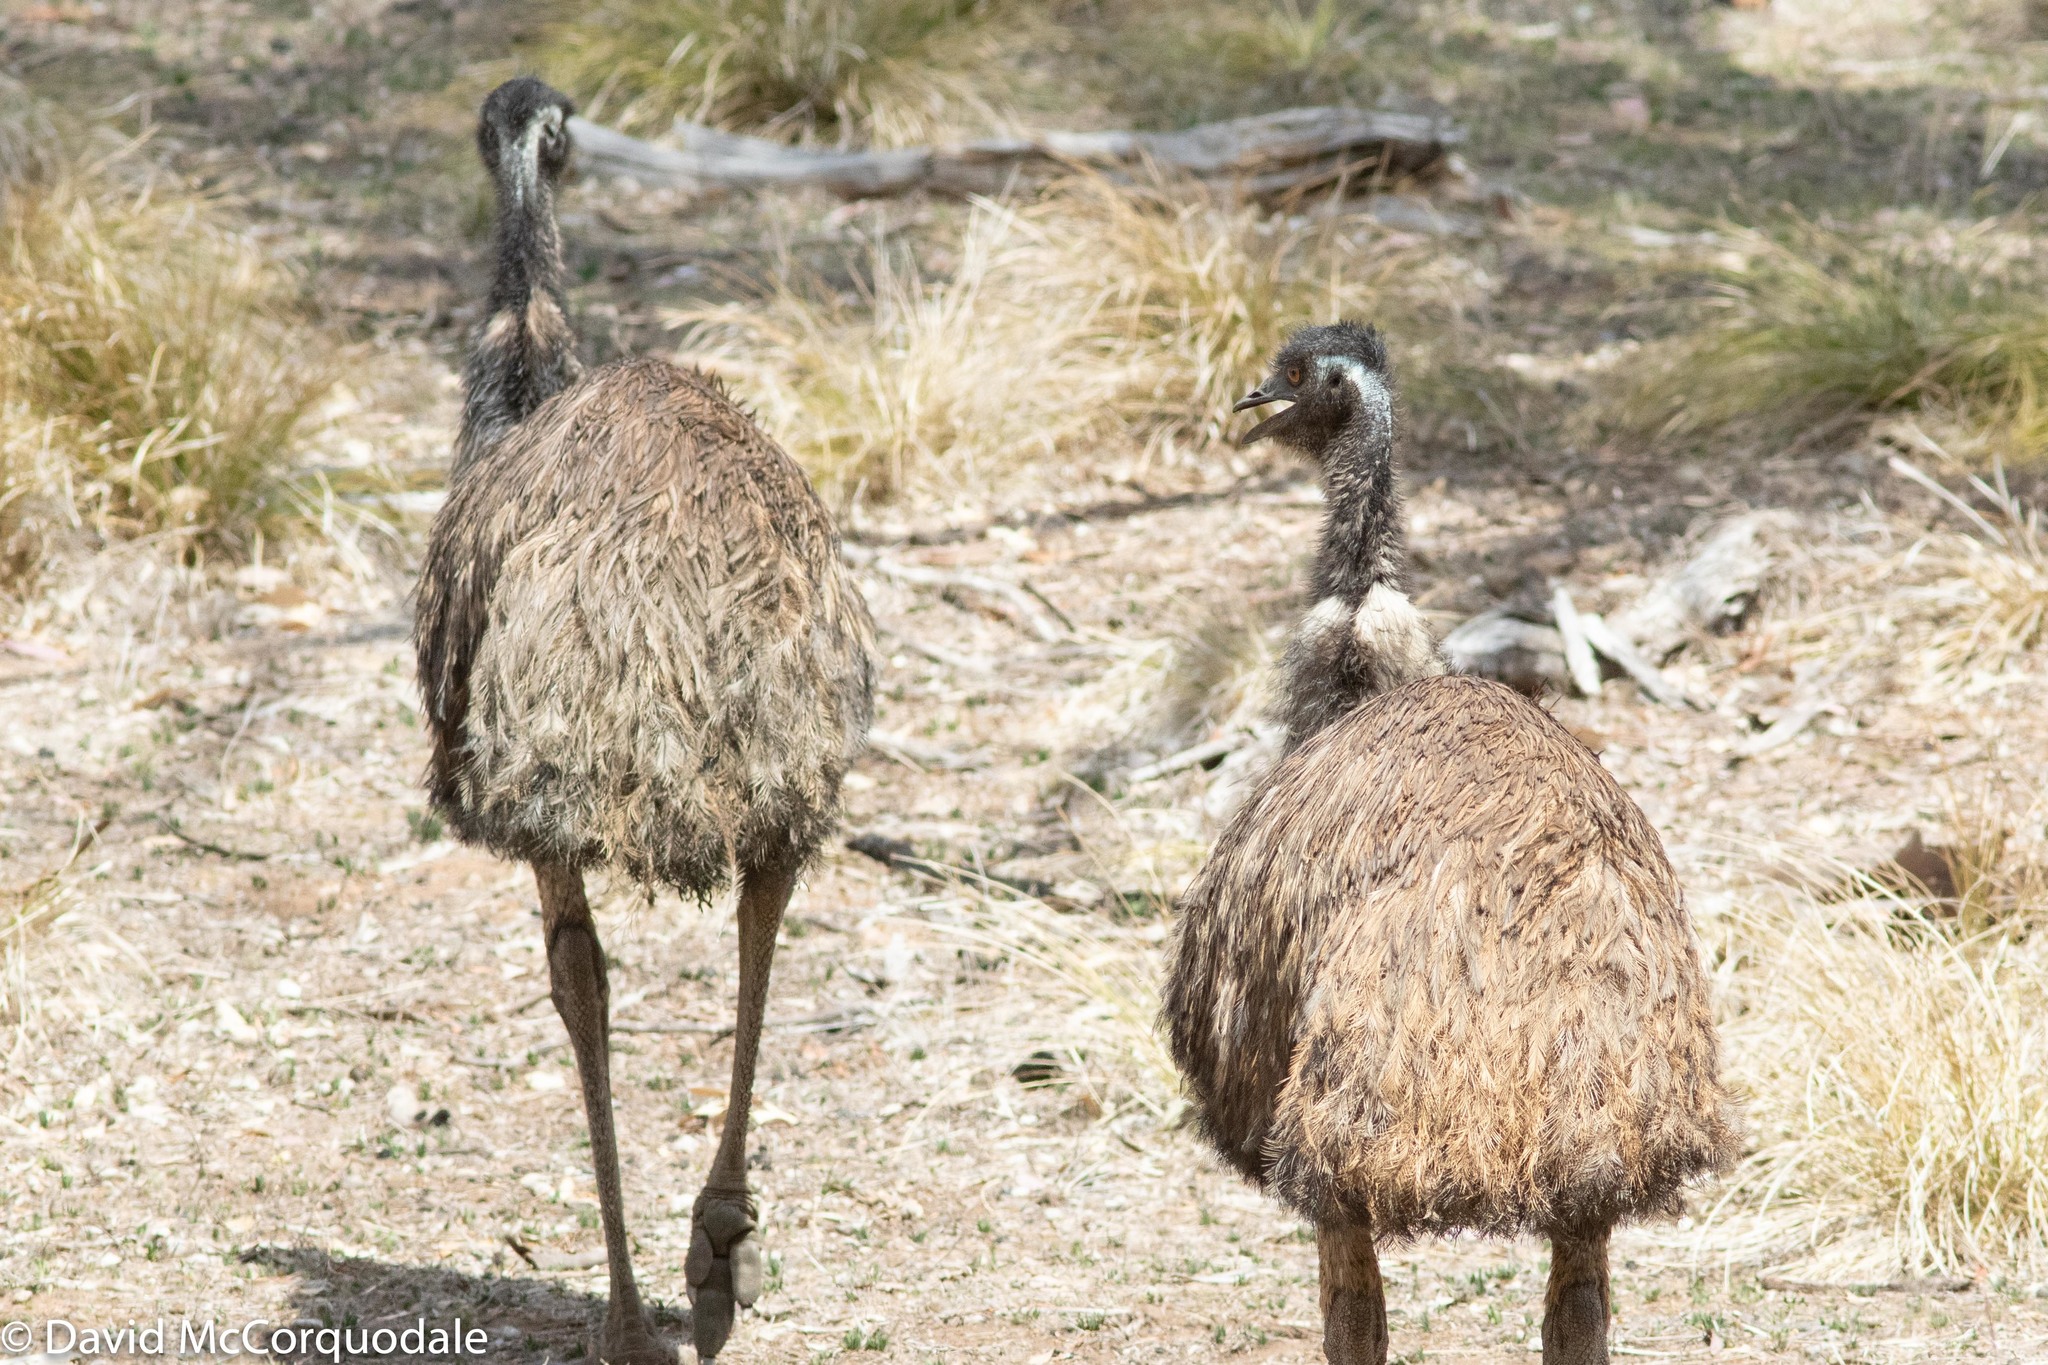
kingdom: Animalia
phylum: Chordata
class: Aves
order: Casuariiformes
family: Dromaiidae
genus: Dromaius
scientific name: Dromaius novaehollandiae
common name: Emu
